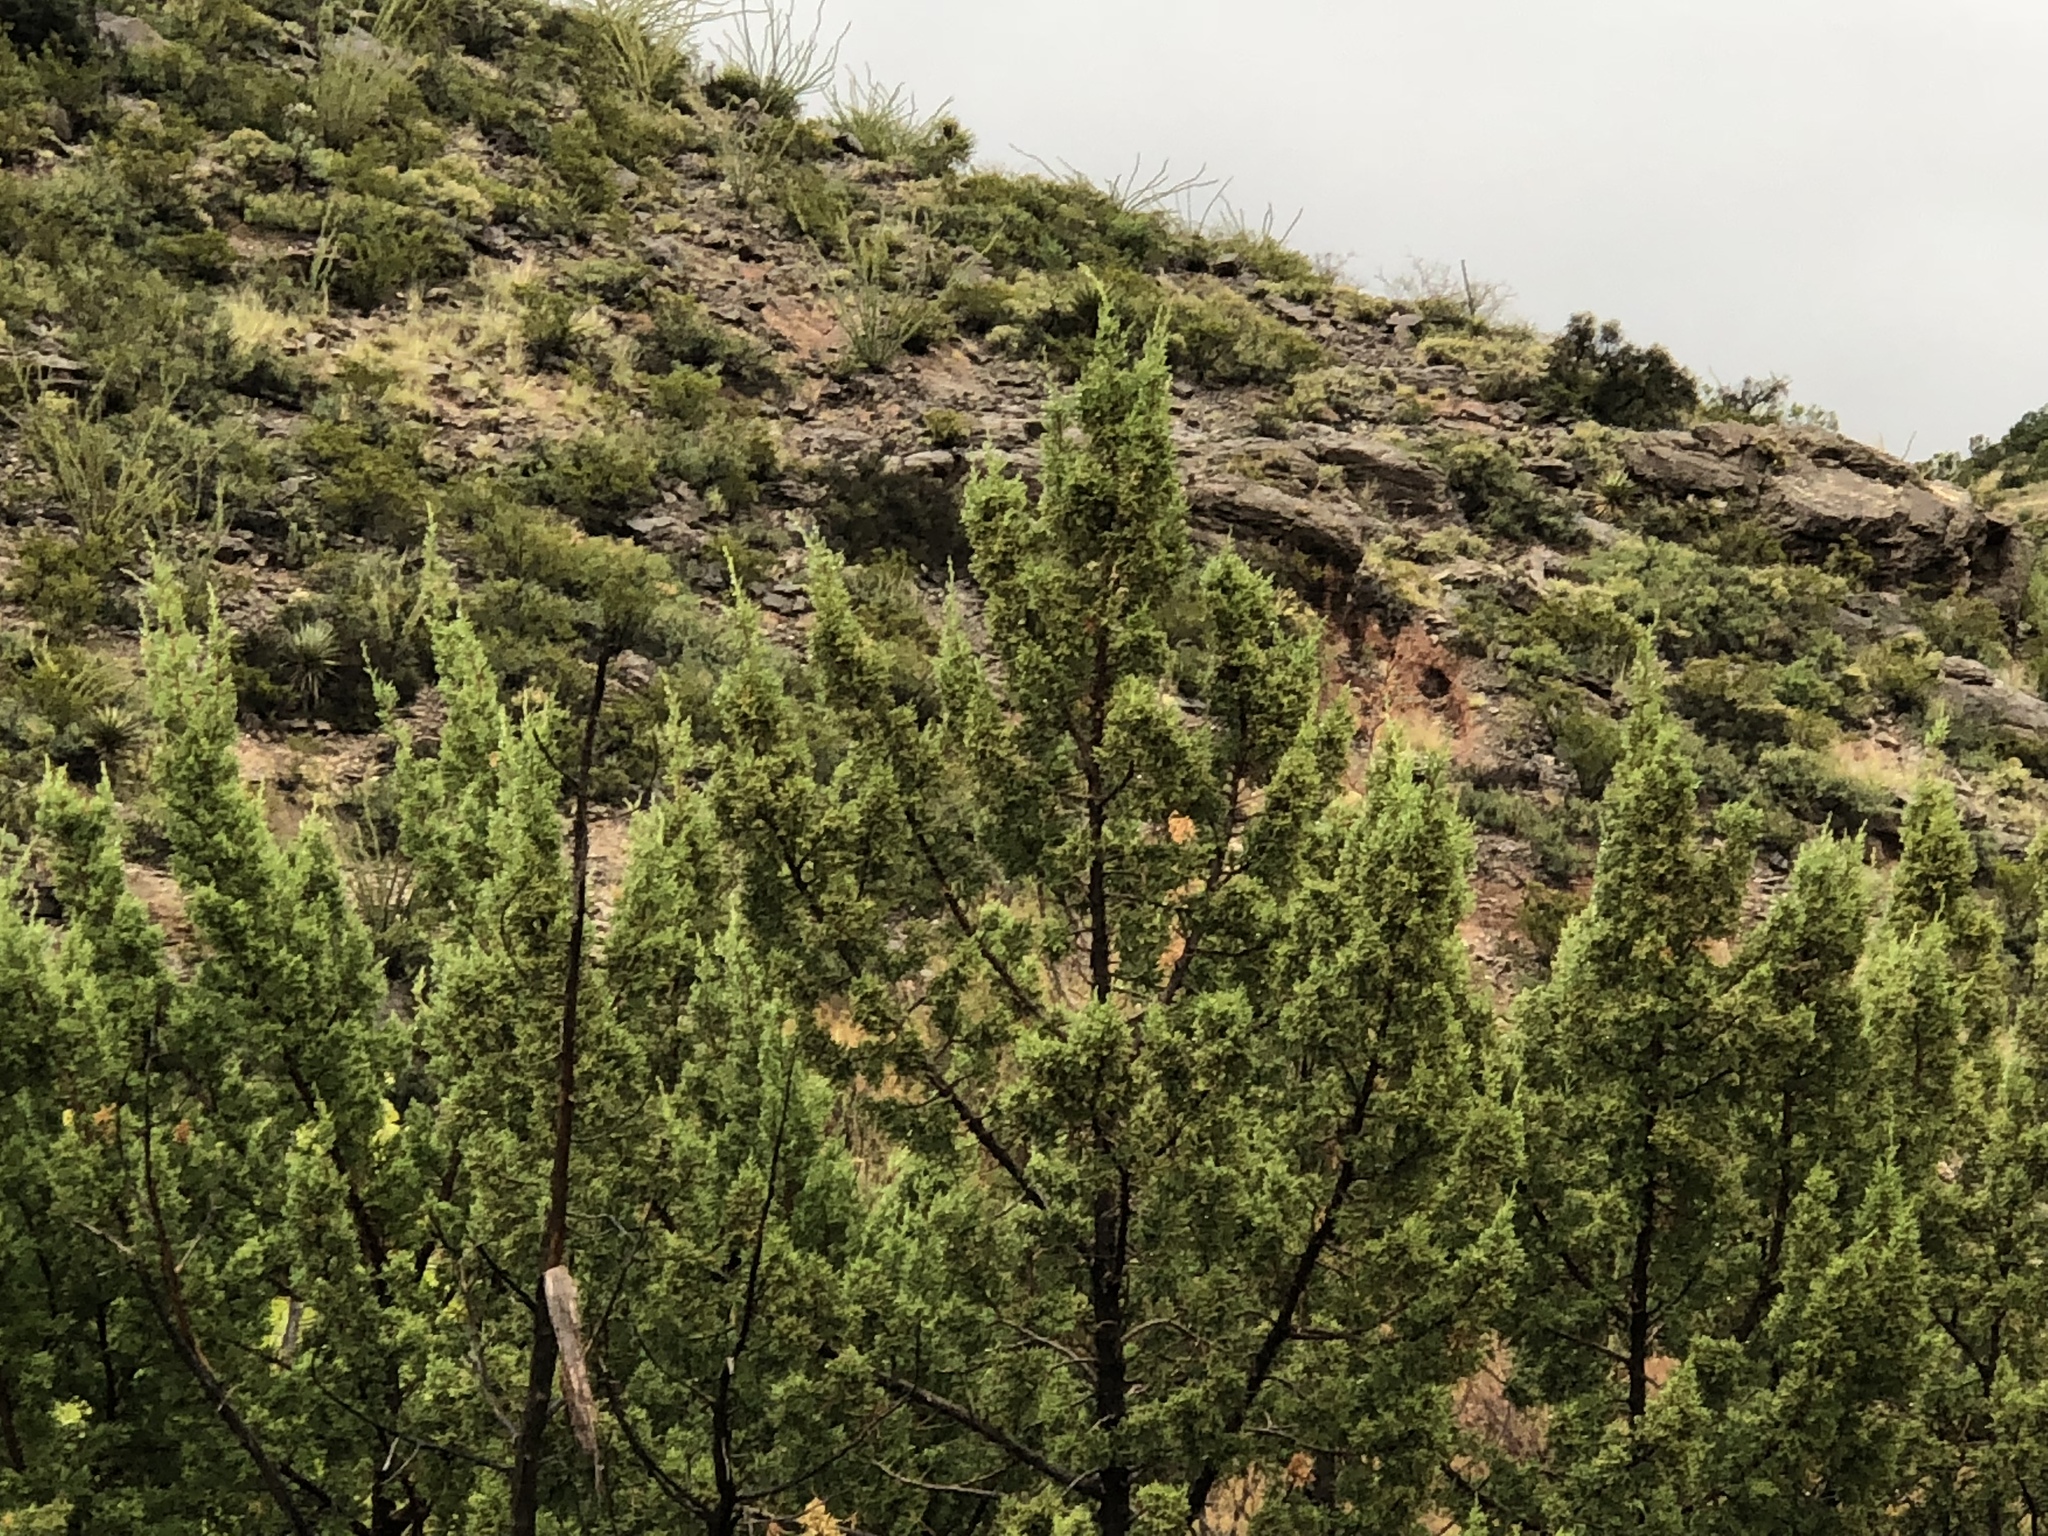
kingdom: Plantae
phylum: Tracheophyta
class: Pinopsida
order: Pinales
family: Cupressaceae
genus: Juniperus
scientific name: Juniperus monosperma
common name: One-seed juniper
